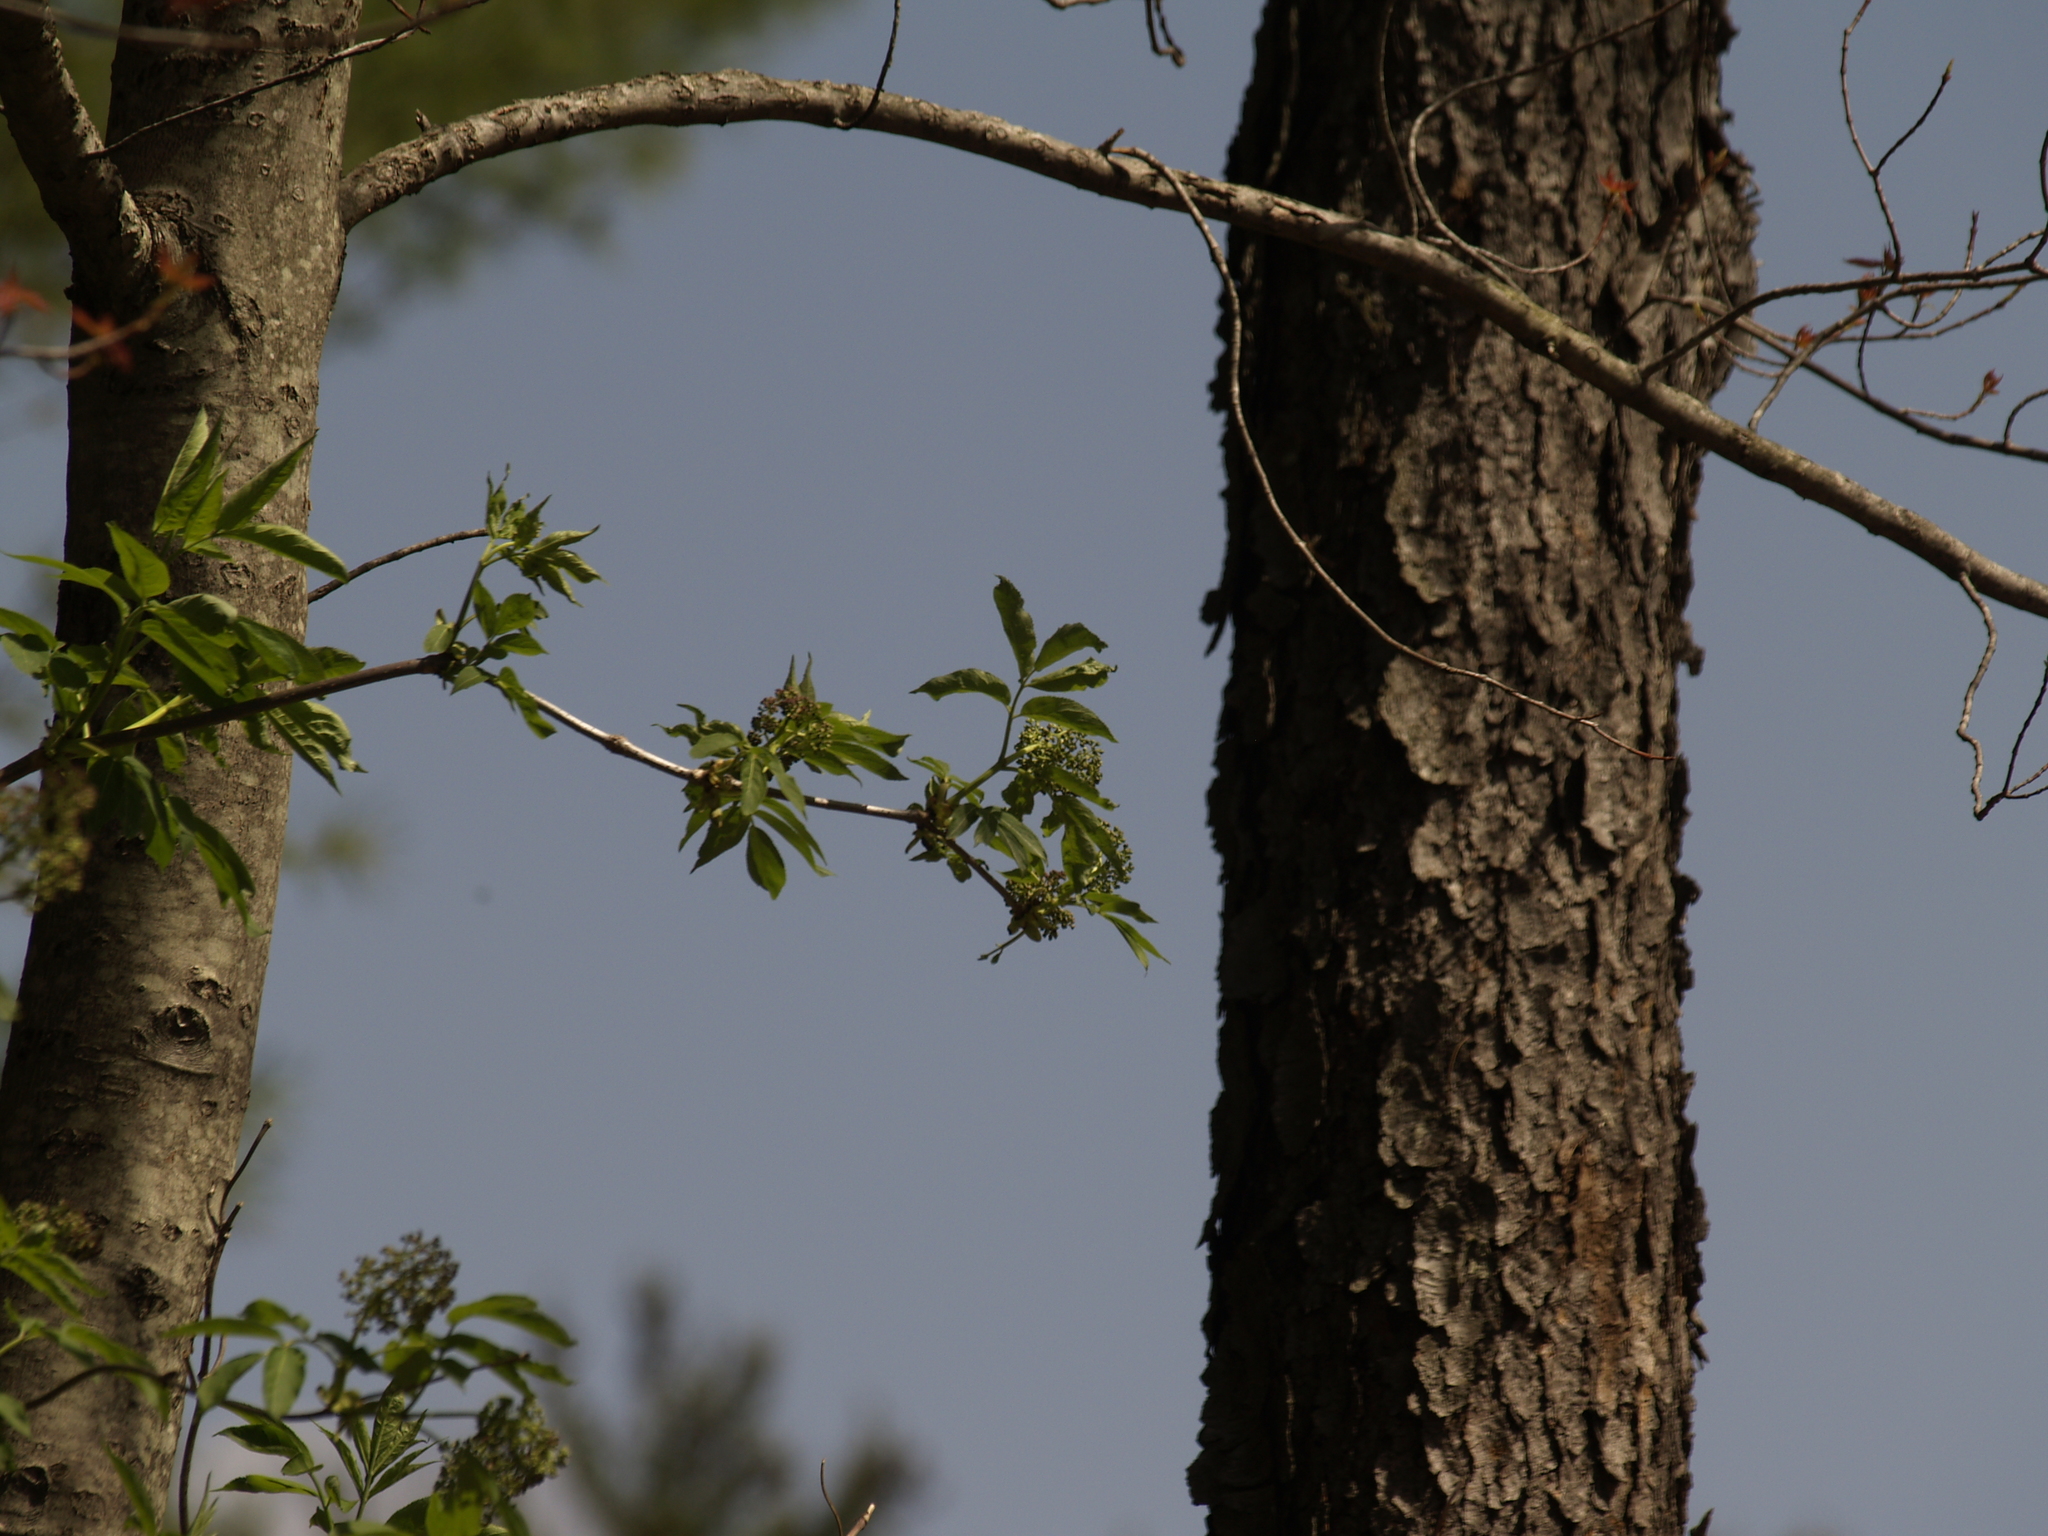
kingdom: Plantae
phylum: Tracheophyta
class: Magnoliopsida
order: Dipsacales
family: Viburnaceae
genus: Sambucus
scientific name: Sambucus racemosa
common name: Red-berried elder
